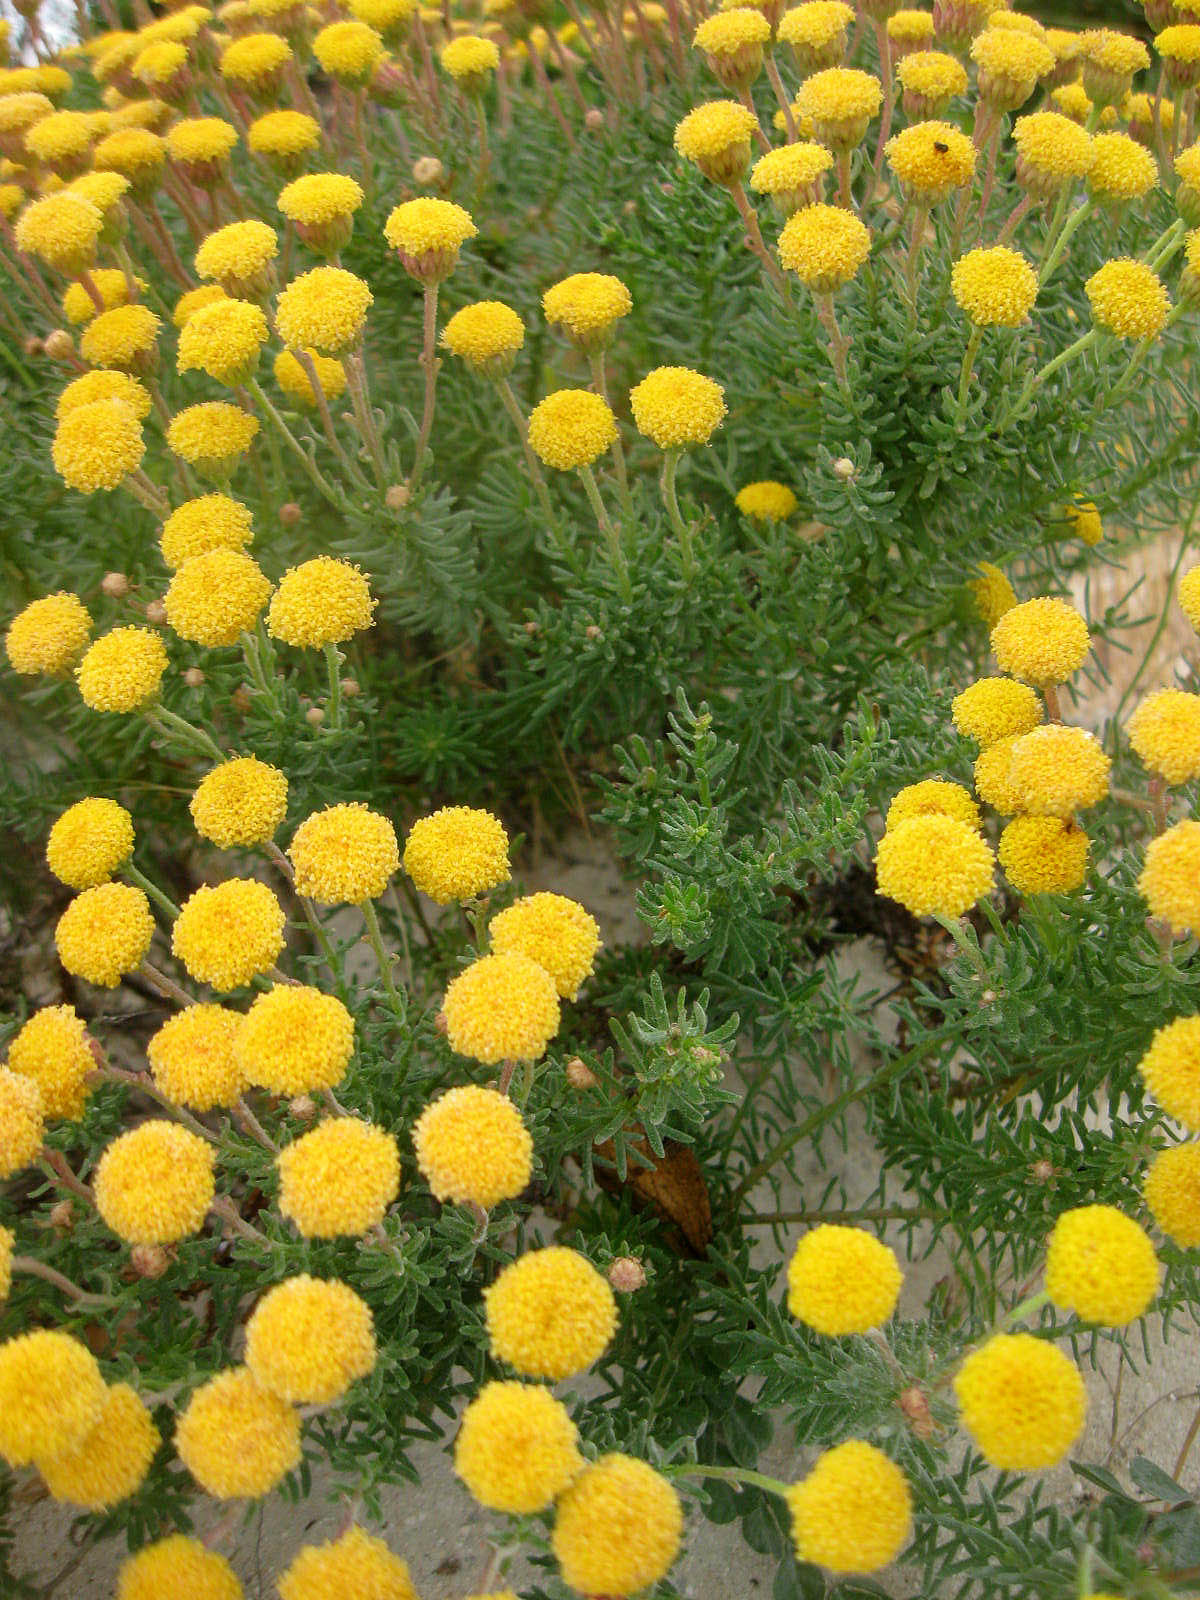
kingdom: Plantae
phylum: Tracheophyta
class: Magnoliopsida
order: Asterales
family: Asteraceae
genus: Chrysocoma
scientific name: Chrysocoma cernua
